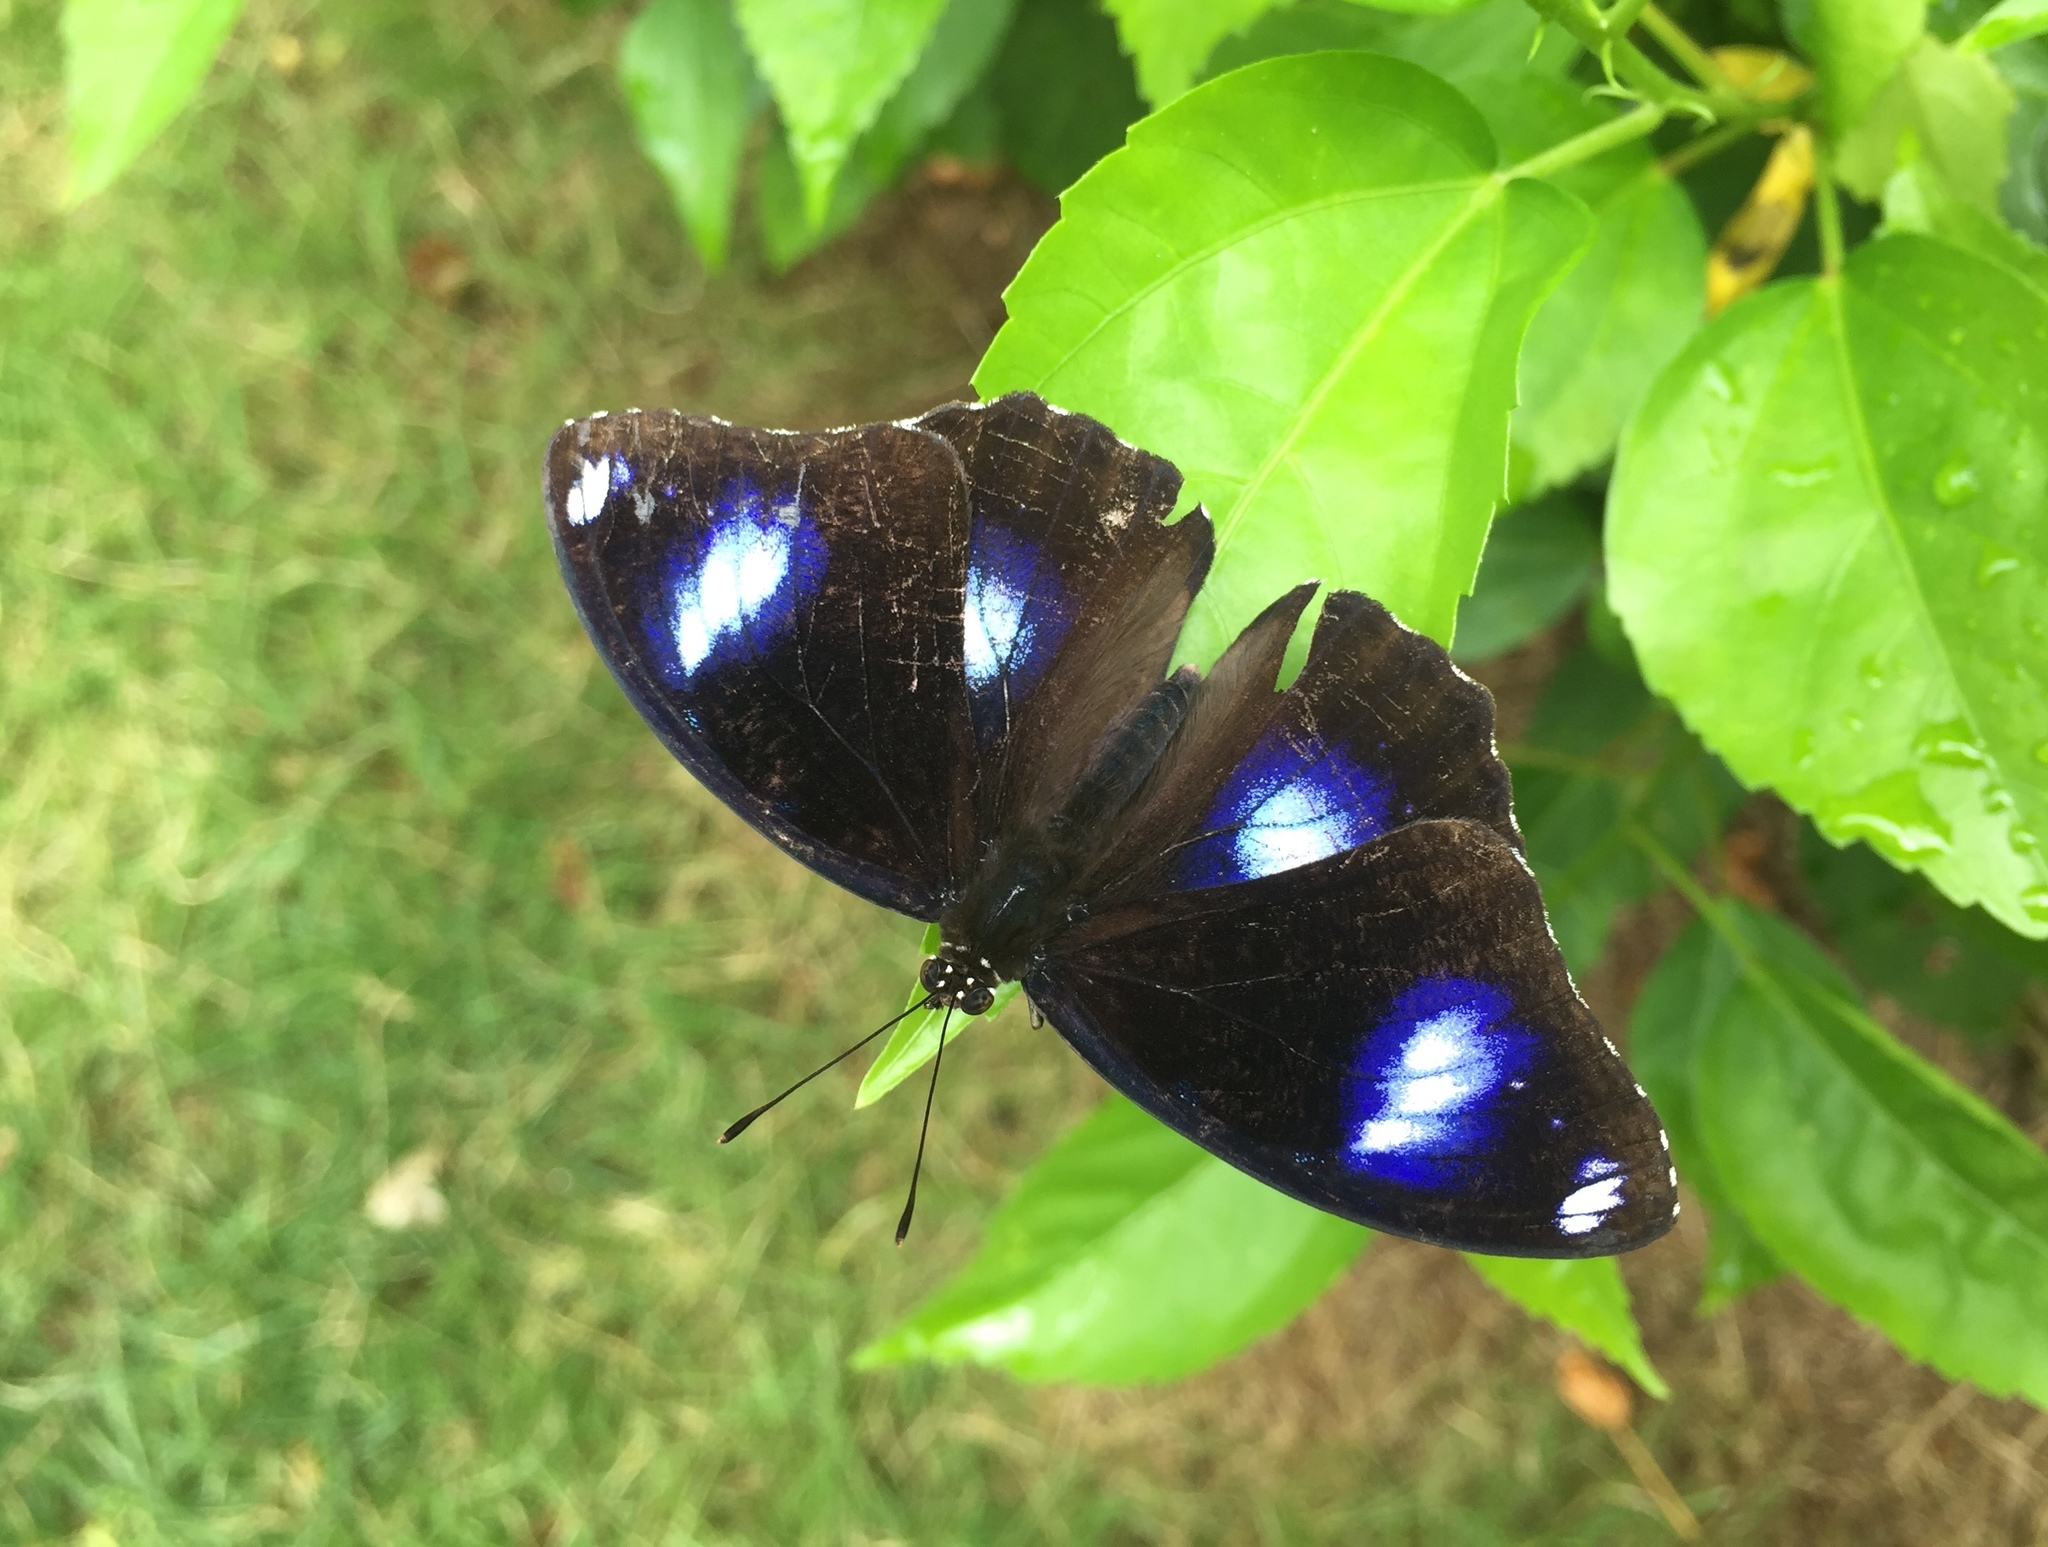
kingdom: Animalia
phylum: Arthropoda
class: Insecta
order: Lepidoptera
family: Nymphalidae
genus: Hypolimnas
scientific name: Hypolimnas bolina
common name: Great eggfly
